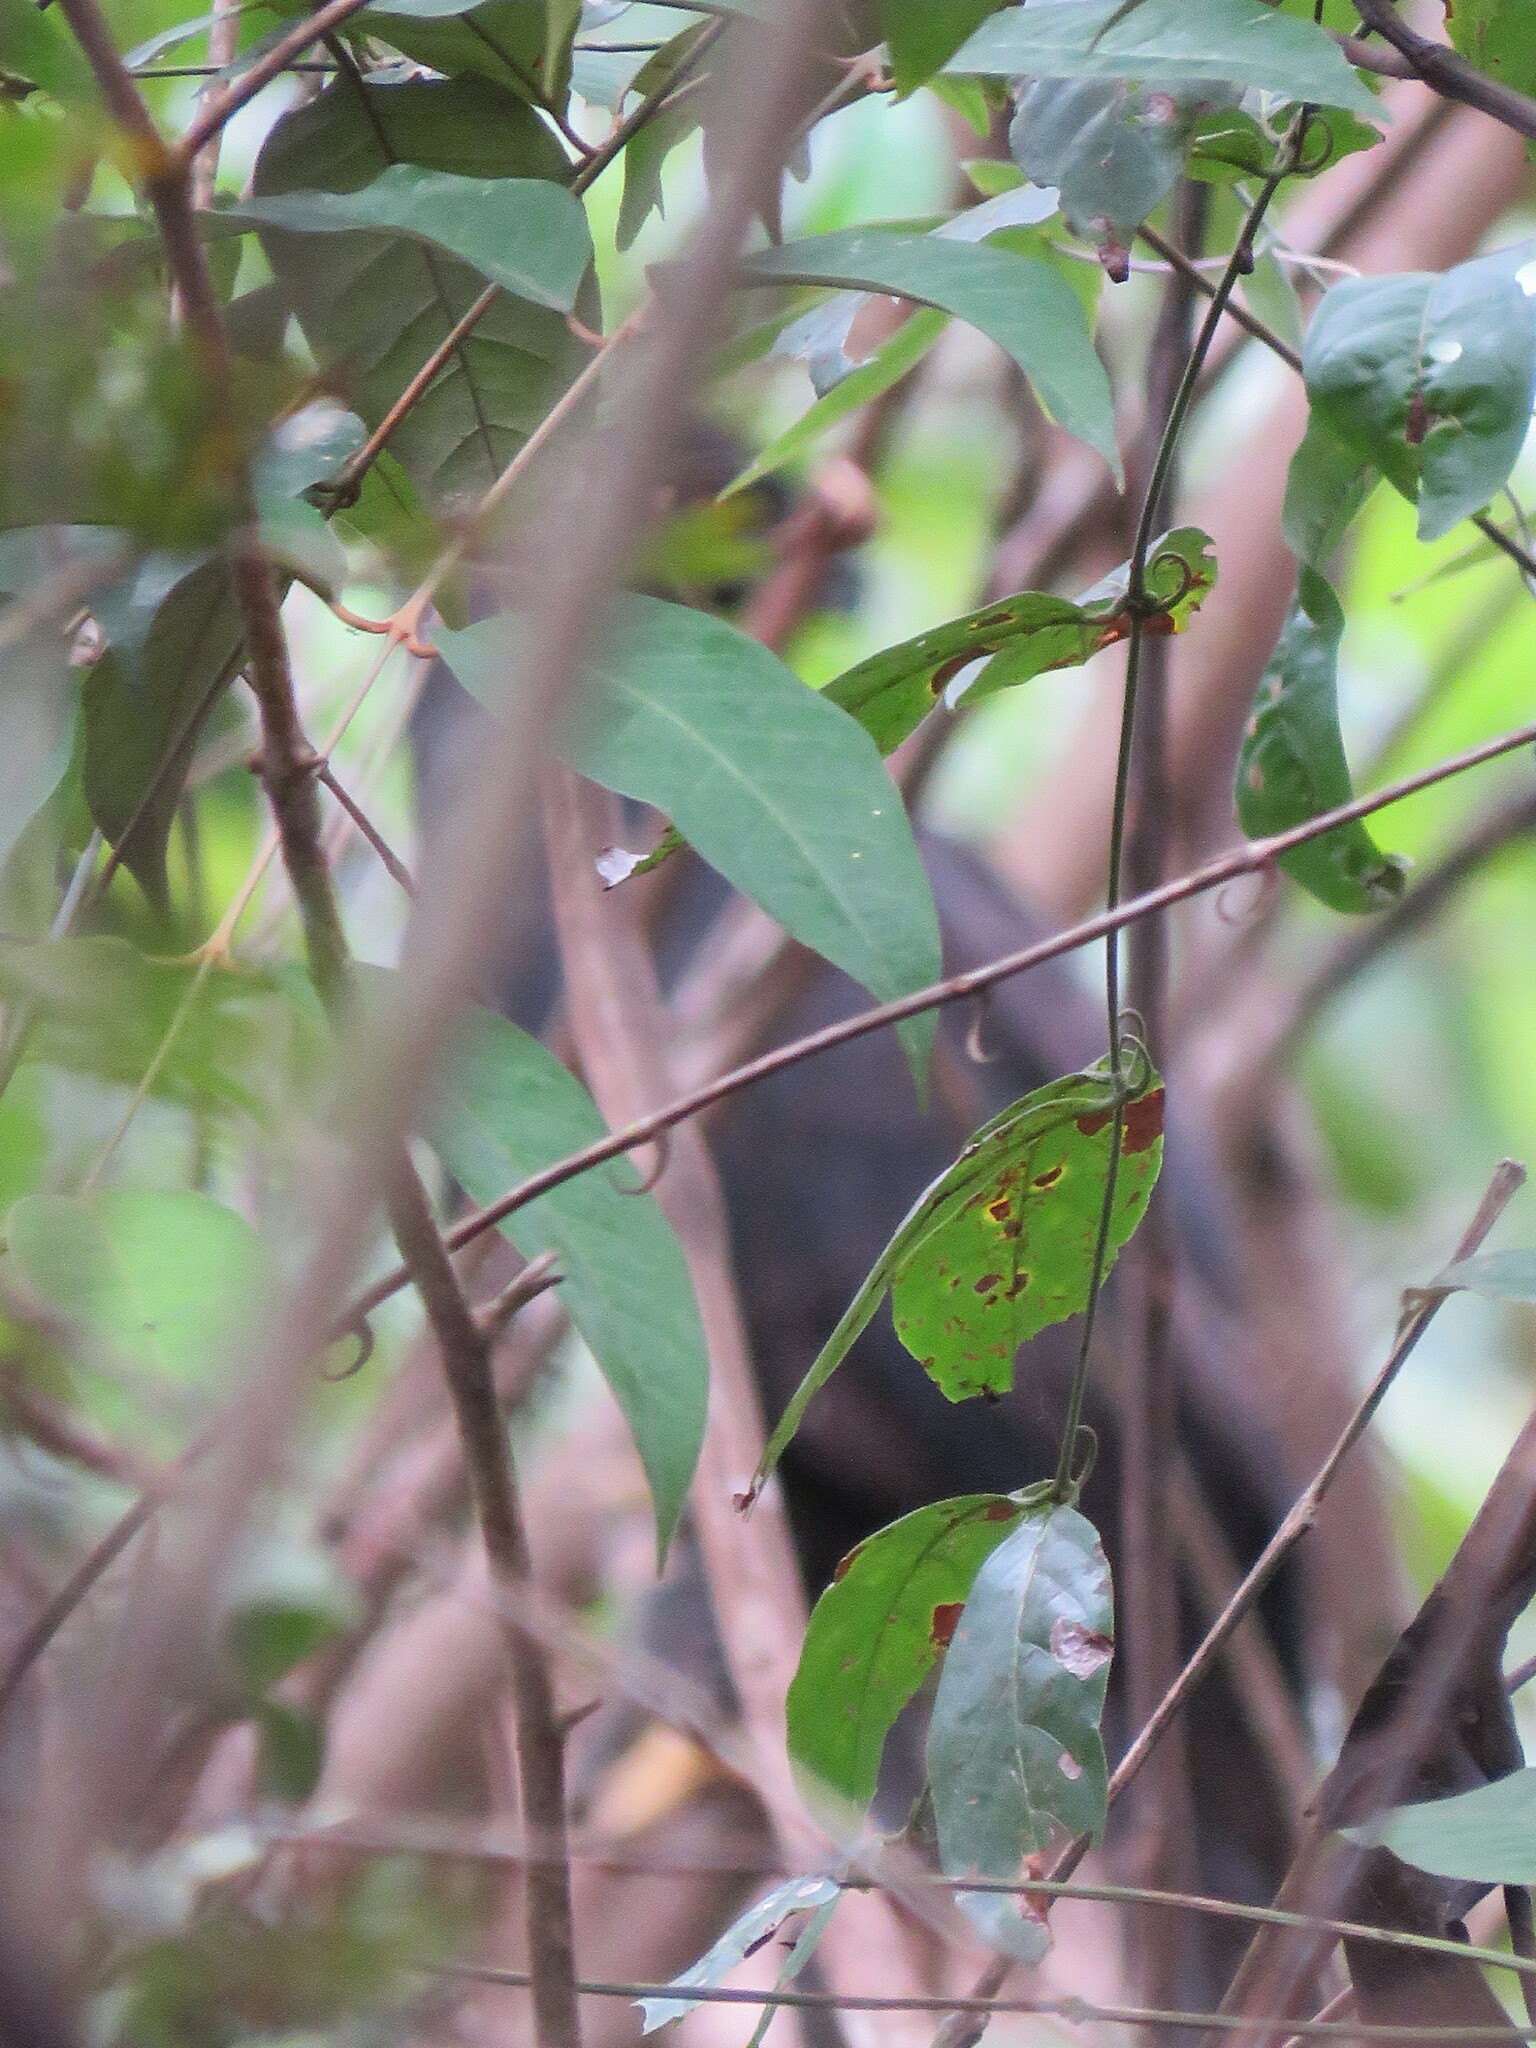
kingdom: Animalia
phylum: Chordata
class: Aves
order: Accipitriformes
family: Accipitridae
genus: Spizaetus
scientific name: Spizaetus tyrannus
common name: Black hawk-eagle
